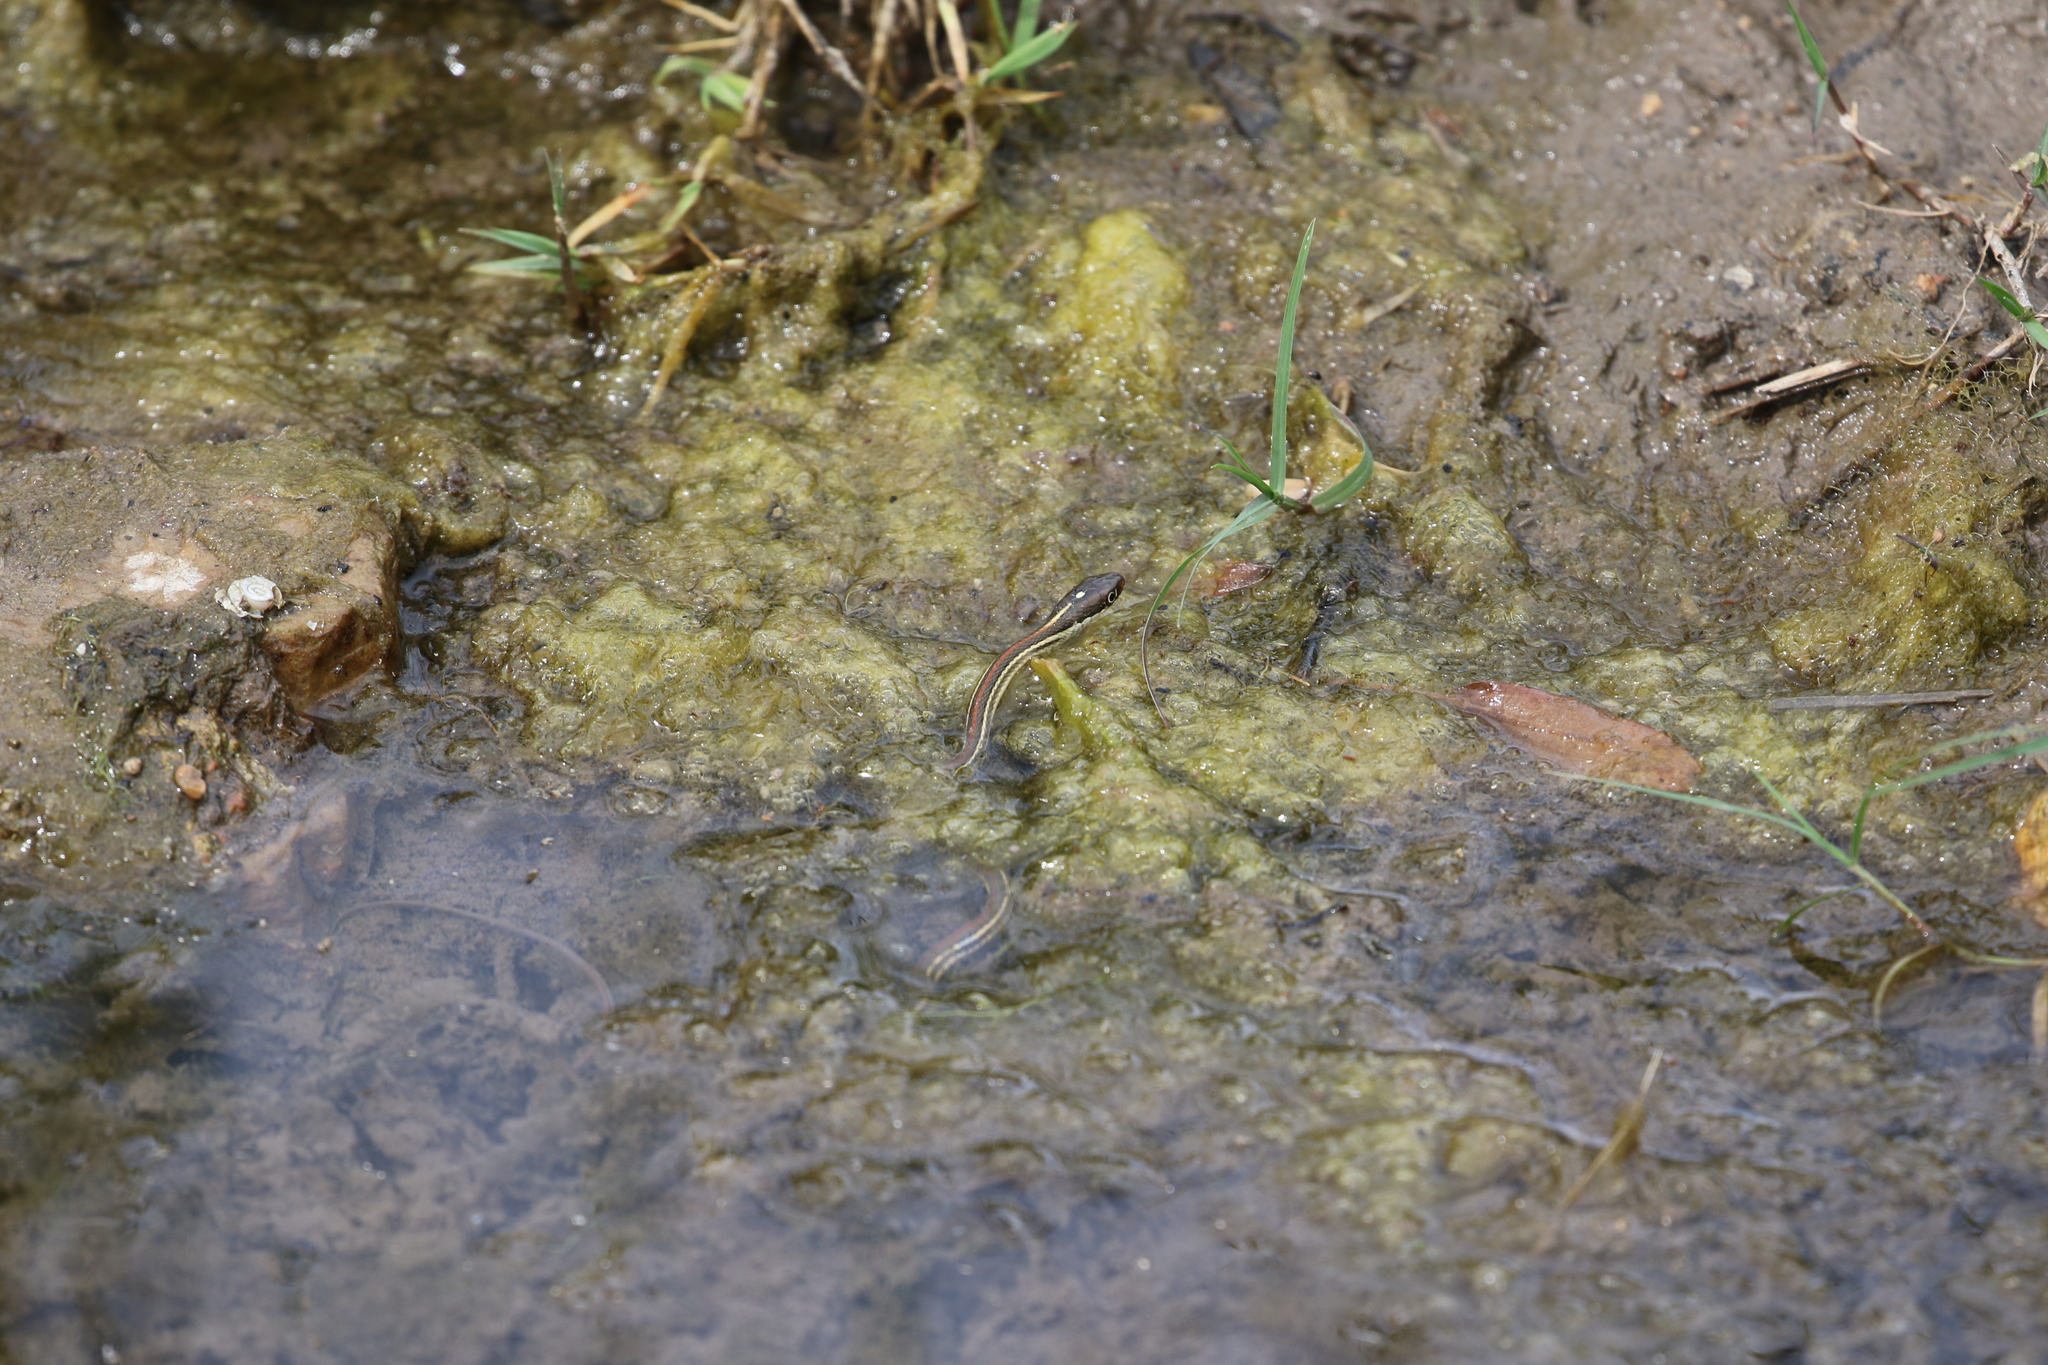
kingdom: Animalia
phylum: Chordata
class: Squamata
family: Colubridae
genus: Thamnophis
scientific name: Thamnophis proximus
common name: Western ribbon snake
